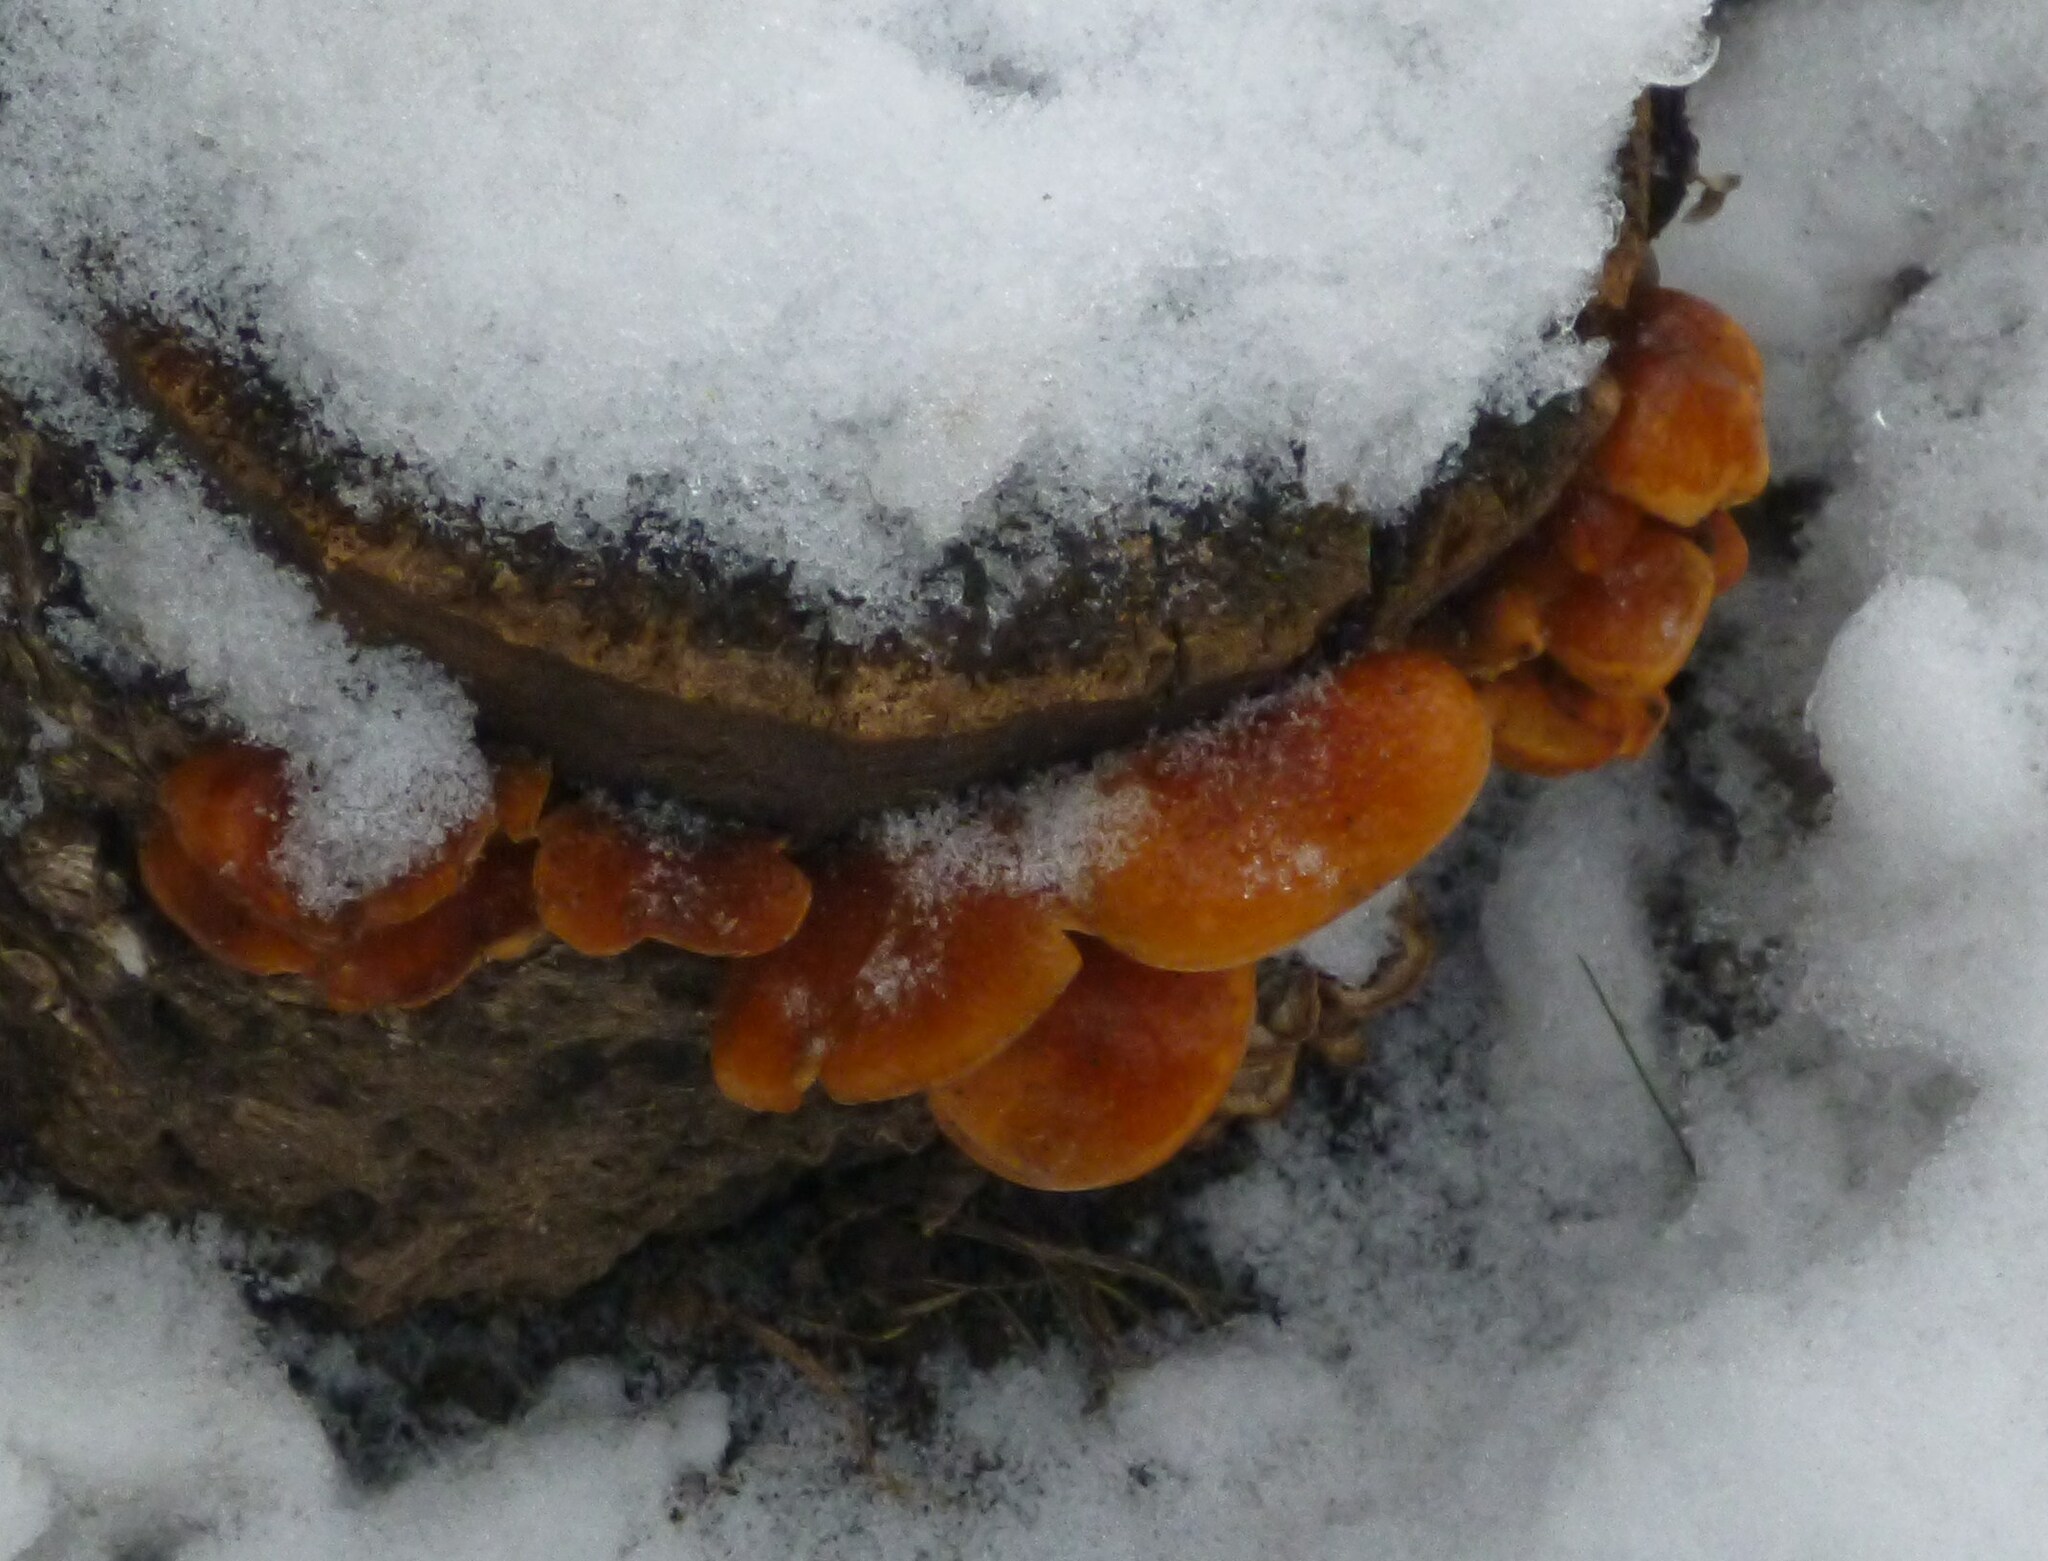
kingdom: Fungi
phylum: Basidiomycota
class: Agaricomycetes
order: Agaricales
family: Physalacriaceae
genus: Flammulina
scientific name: Flammulina
